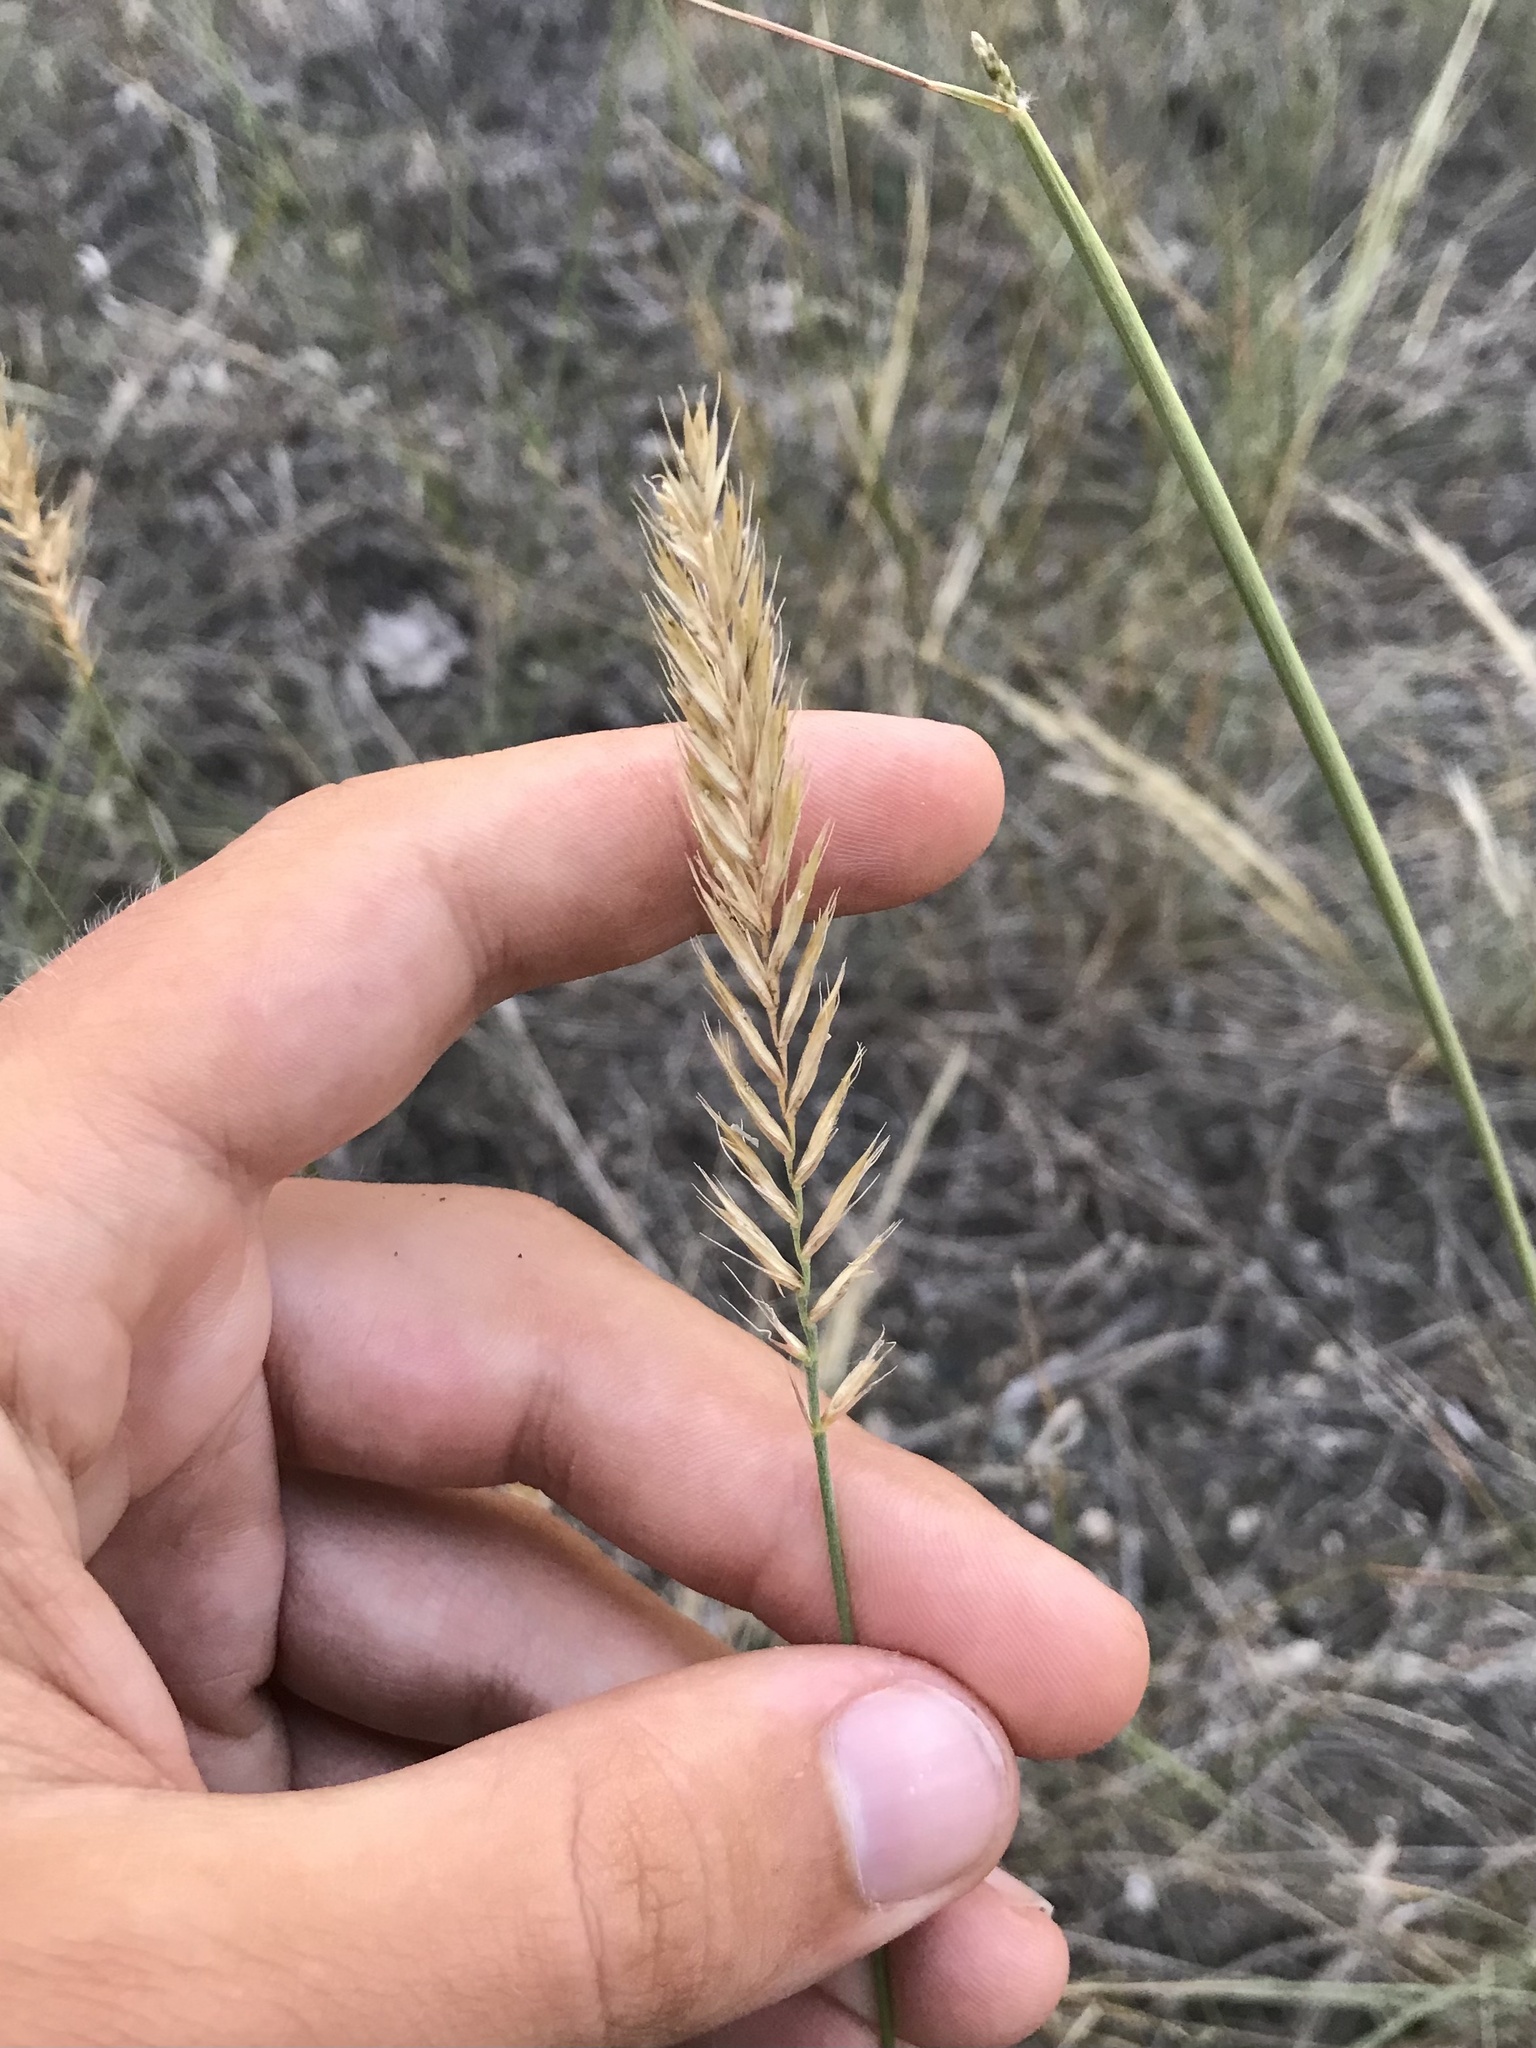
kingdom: Plantae
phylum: Tracheophyta
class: Liliopsida
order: Poales
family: Poaceae
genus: Agropyron
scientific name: Agropyron cristatum
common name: Crested wheatgrass
